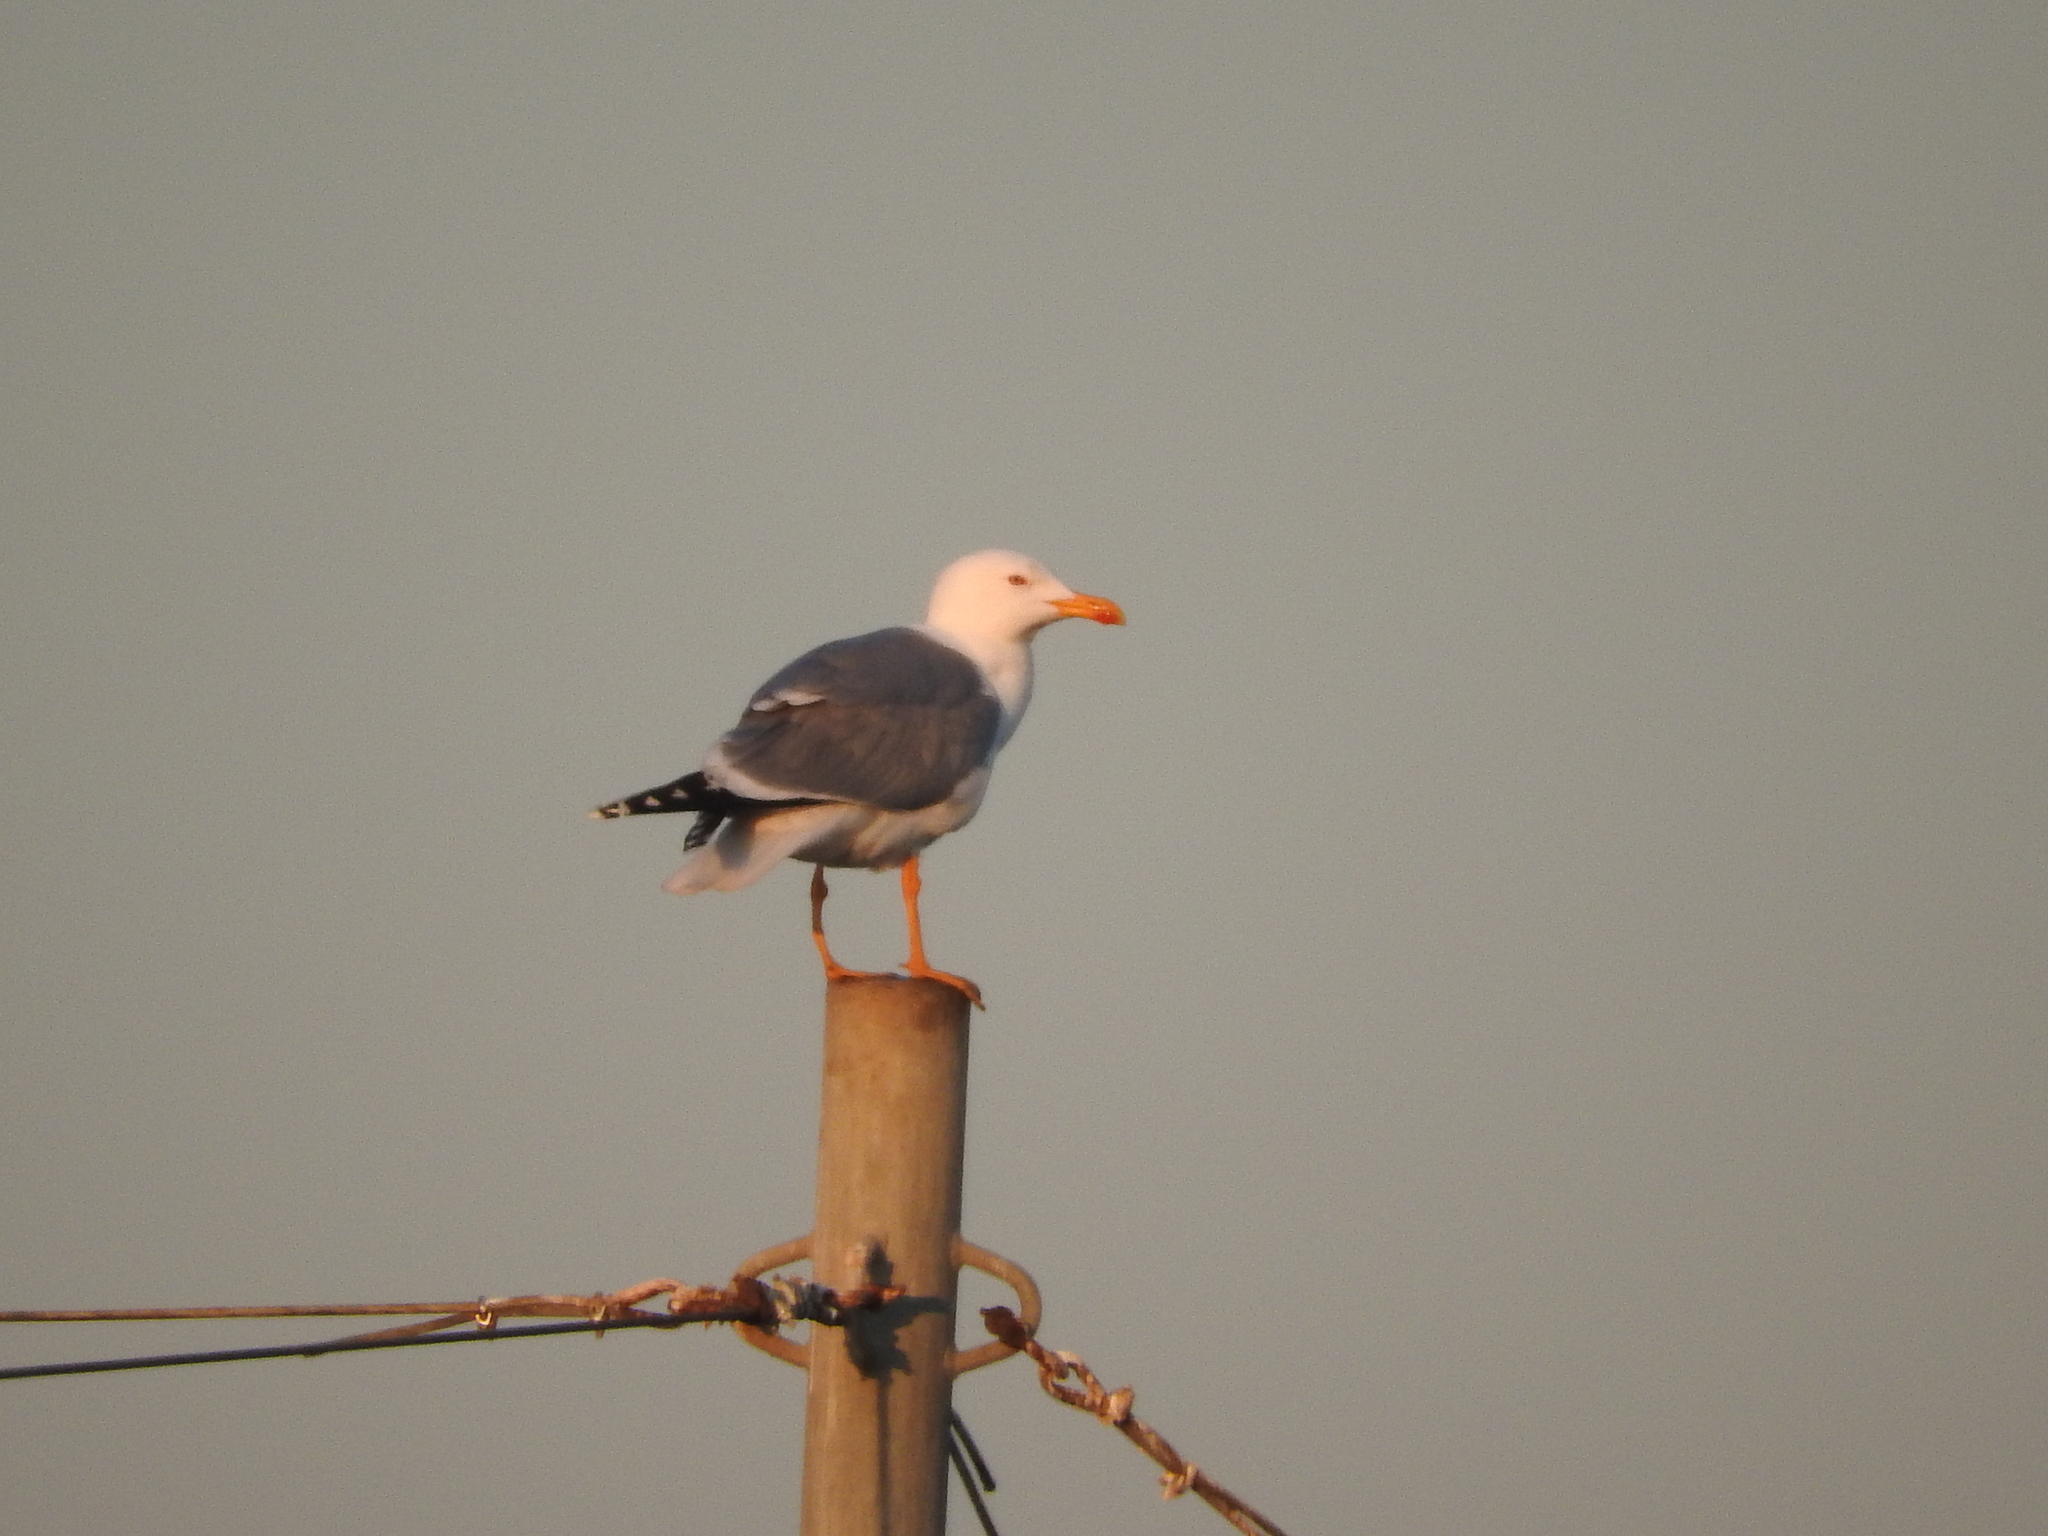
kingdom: Animalia
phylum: Chordata
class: Aves
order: Charadriiformes
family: Laridae
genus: Larus
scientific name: Larus michahellis
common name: Yellow-legged gull
